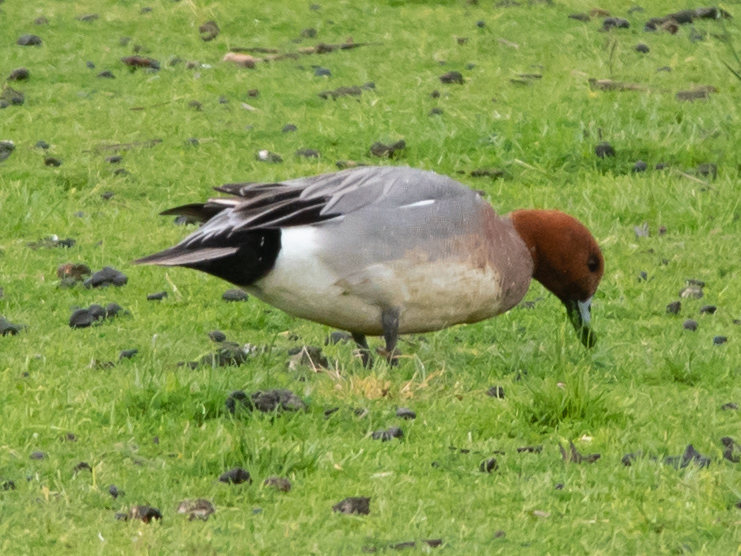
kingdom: Animalia
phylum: Chordata
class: Aves
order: Anseriformes
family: Anatidae
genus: Mareca
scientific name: Mareca penelope
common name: Eurasian wigeon
